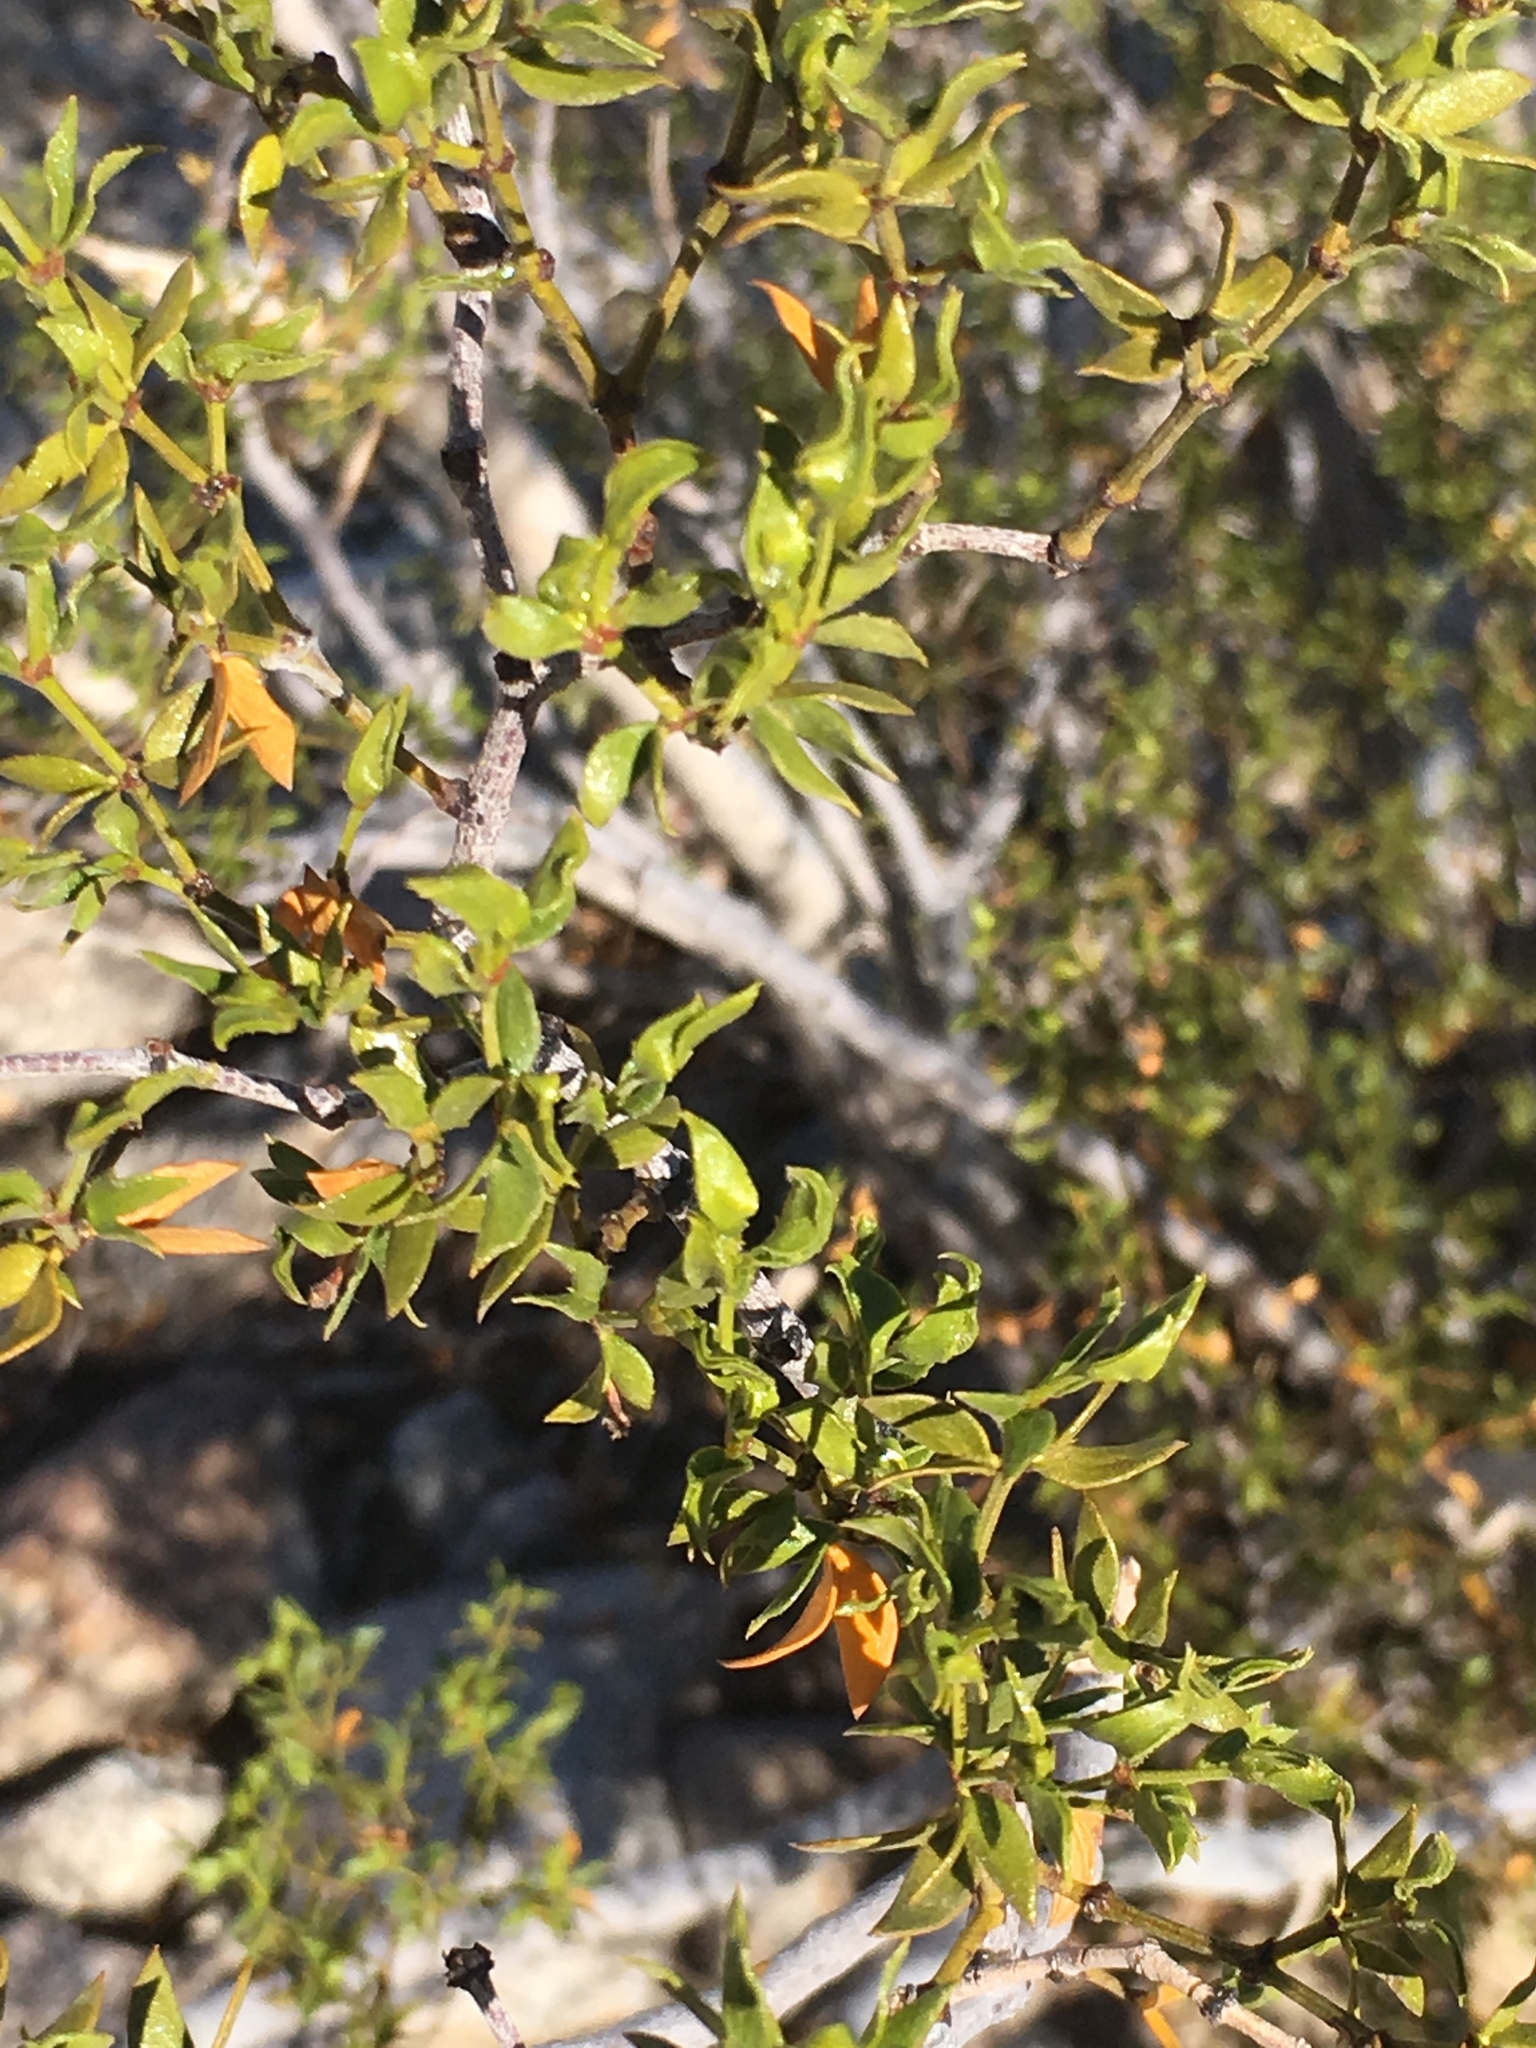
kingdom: Plantae
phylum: Tracheophyta
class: Magnoliopsida
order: Zygophyllales
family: Zygophyllaceae
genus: Larrea
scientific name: Larrea tridentata
